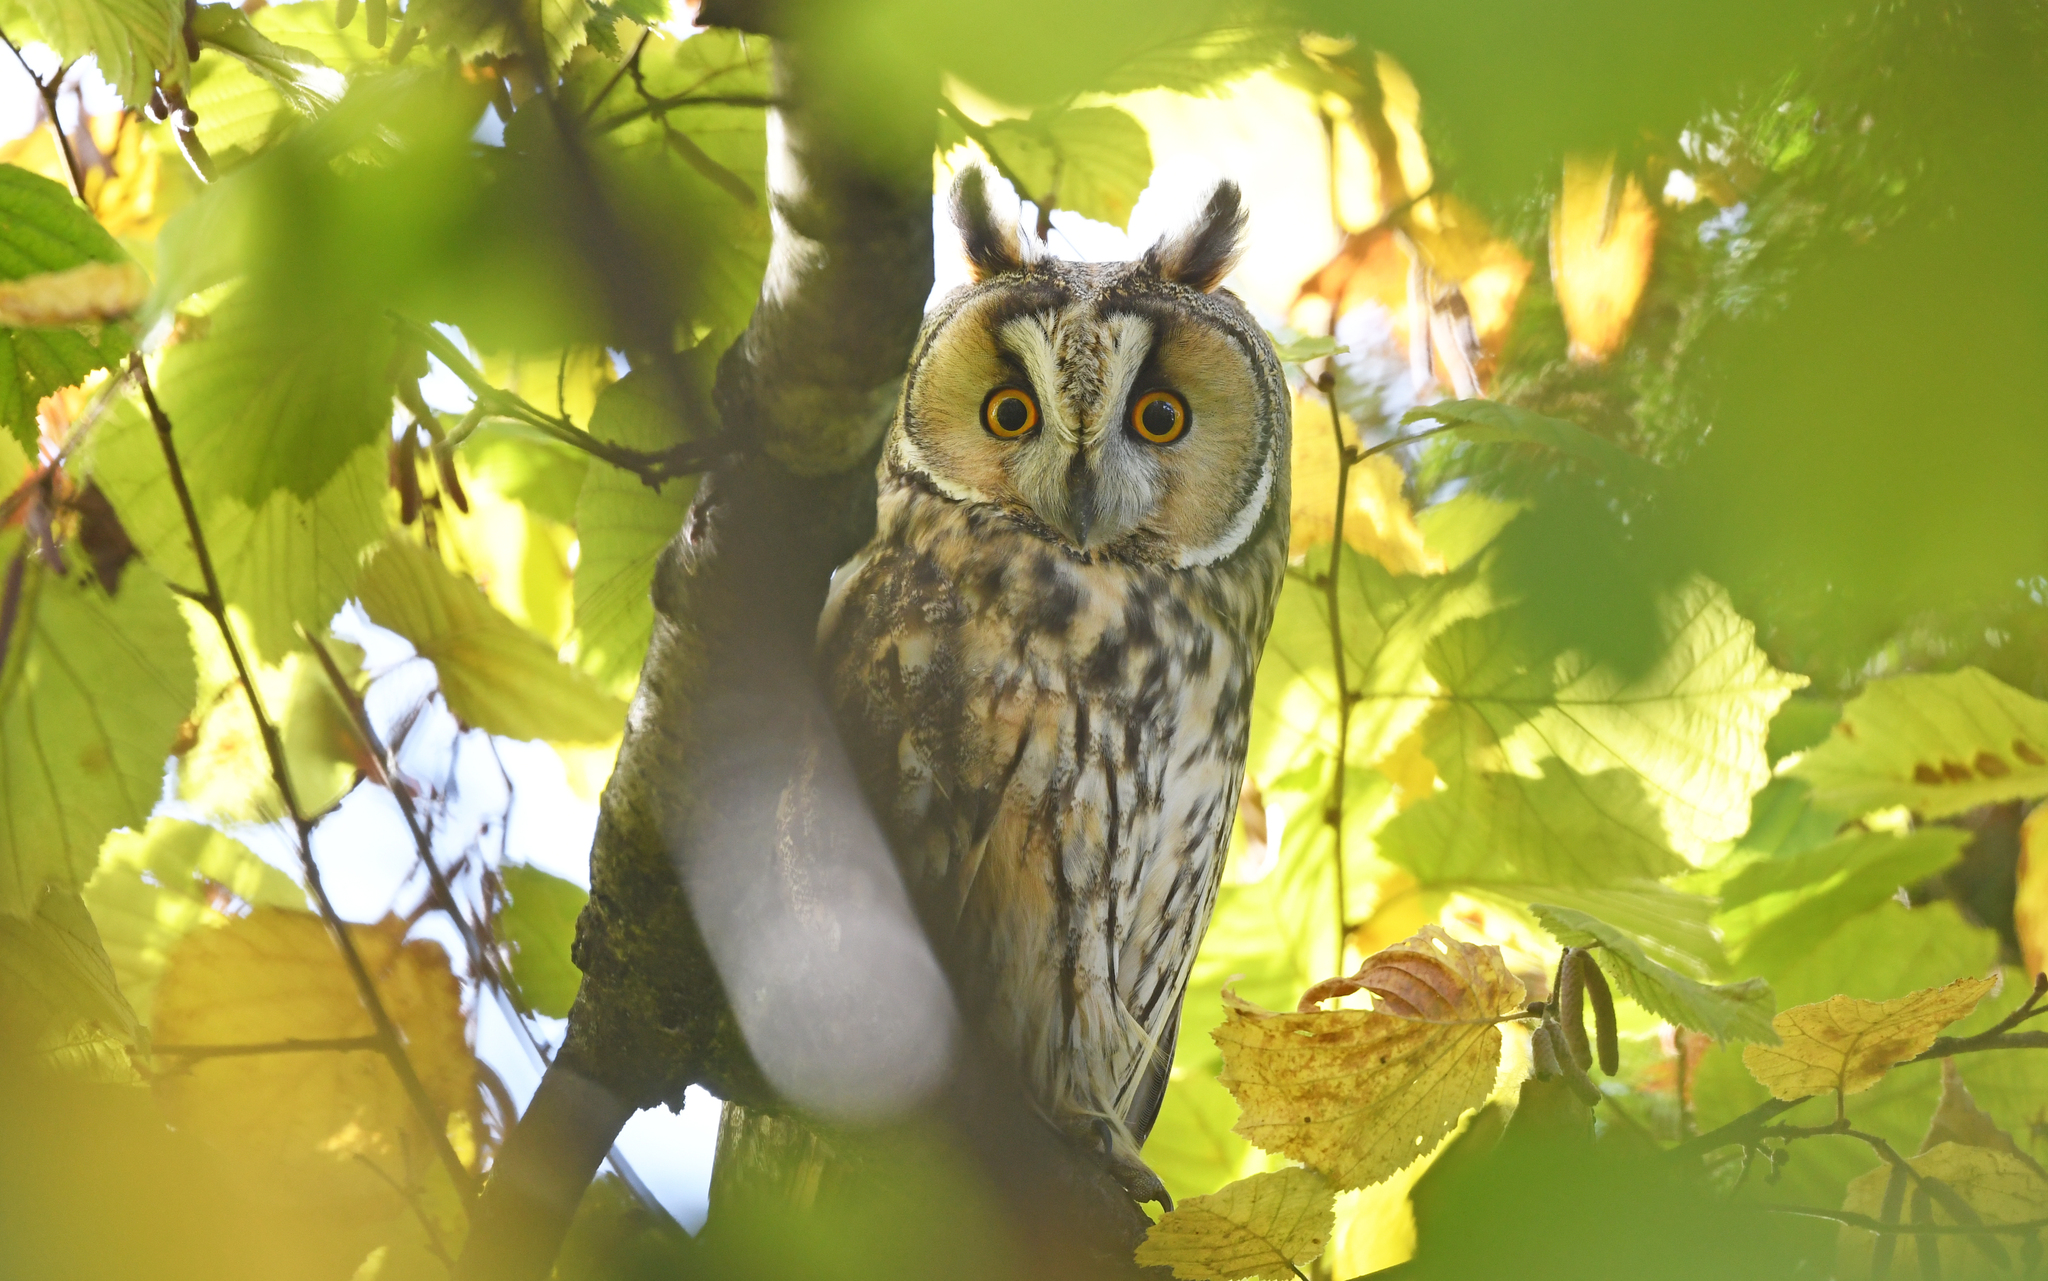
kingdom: Animalia
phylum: Chordata
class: Aves
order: Strigiformes
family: Strigidae
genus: Asio
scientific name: Asio otus
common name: Long-eared owl
